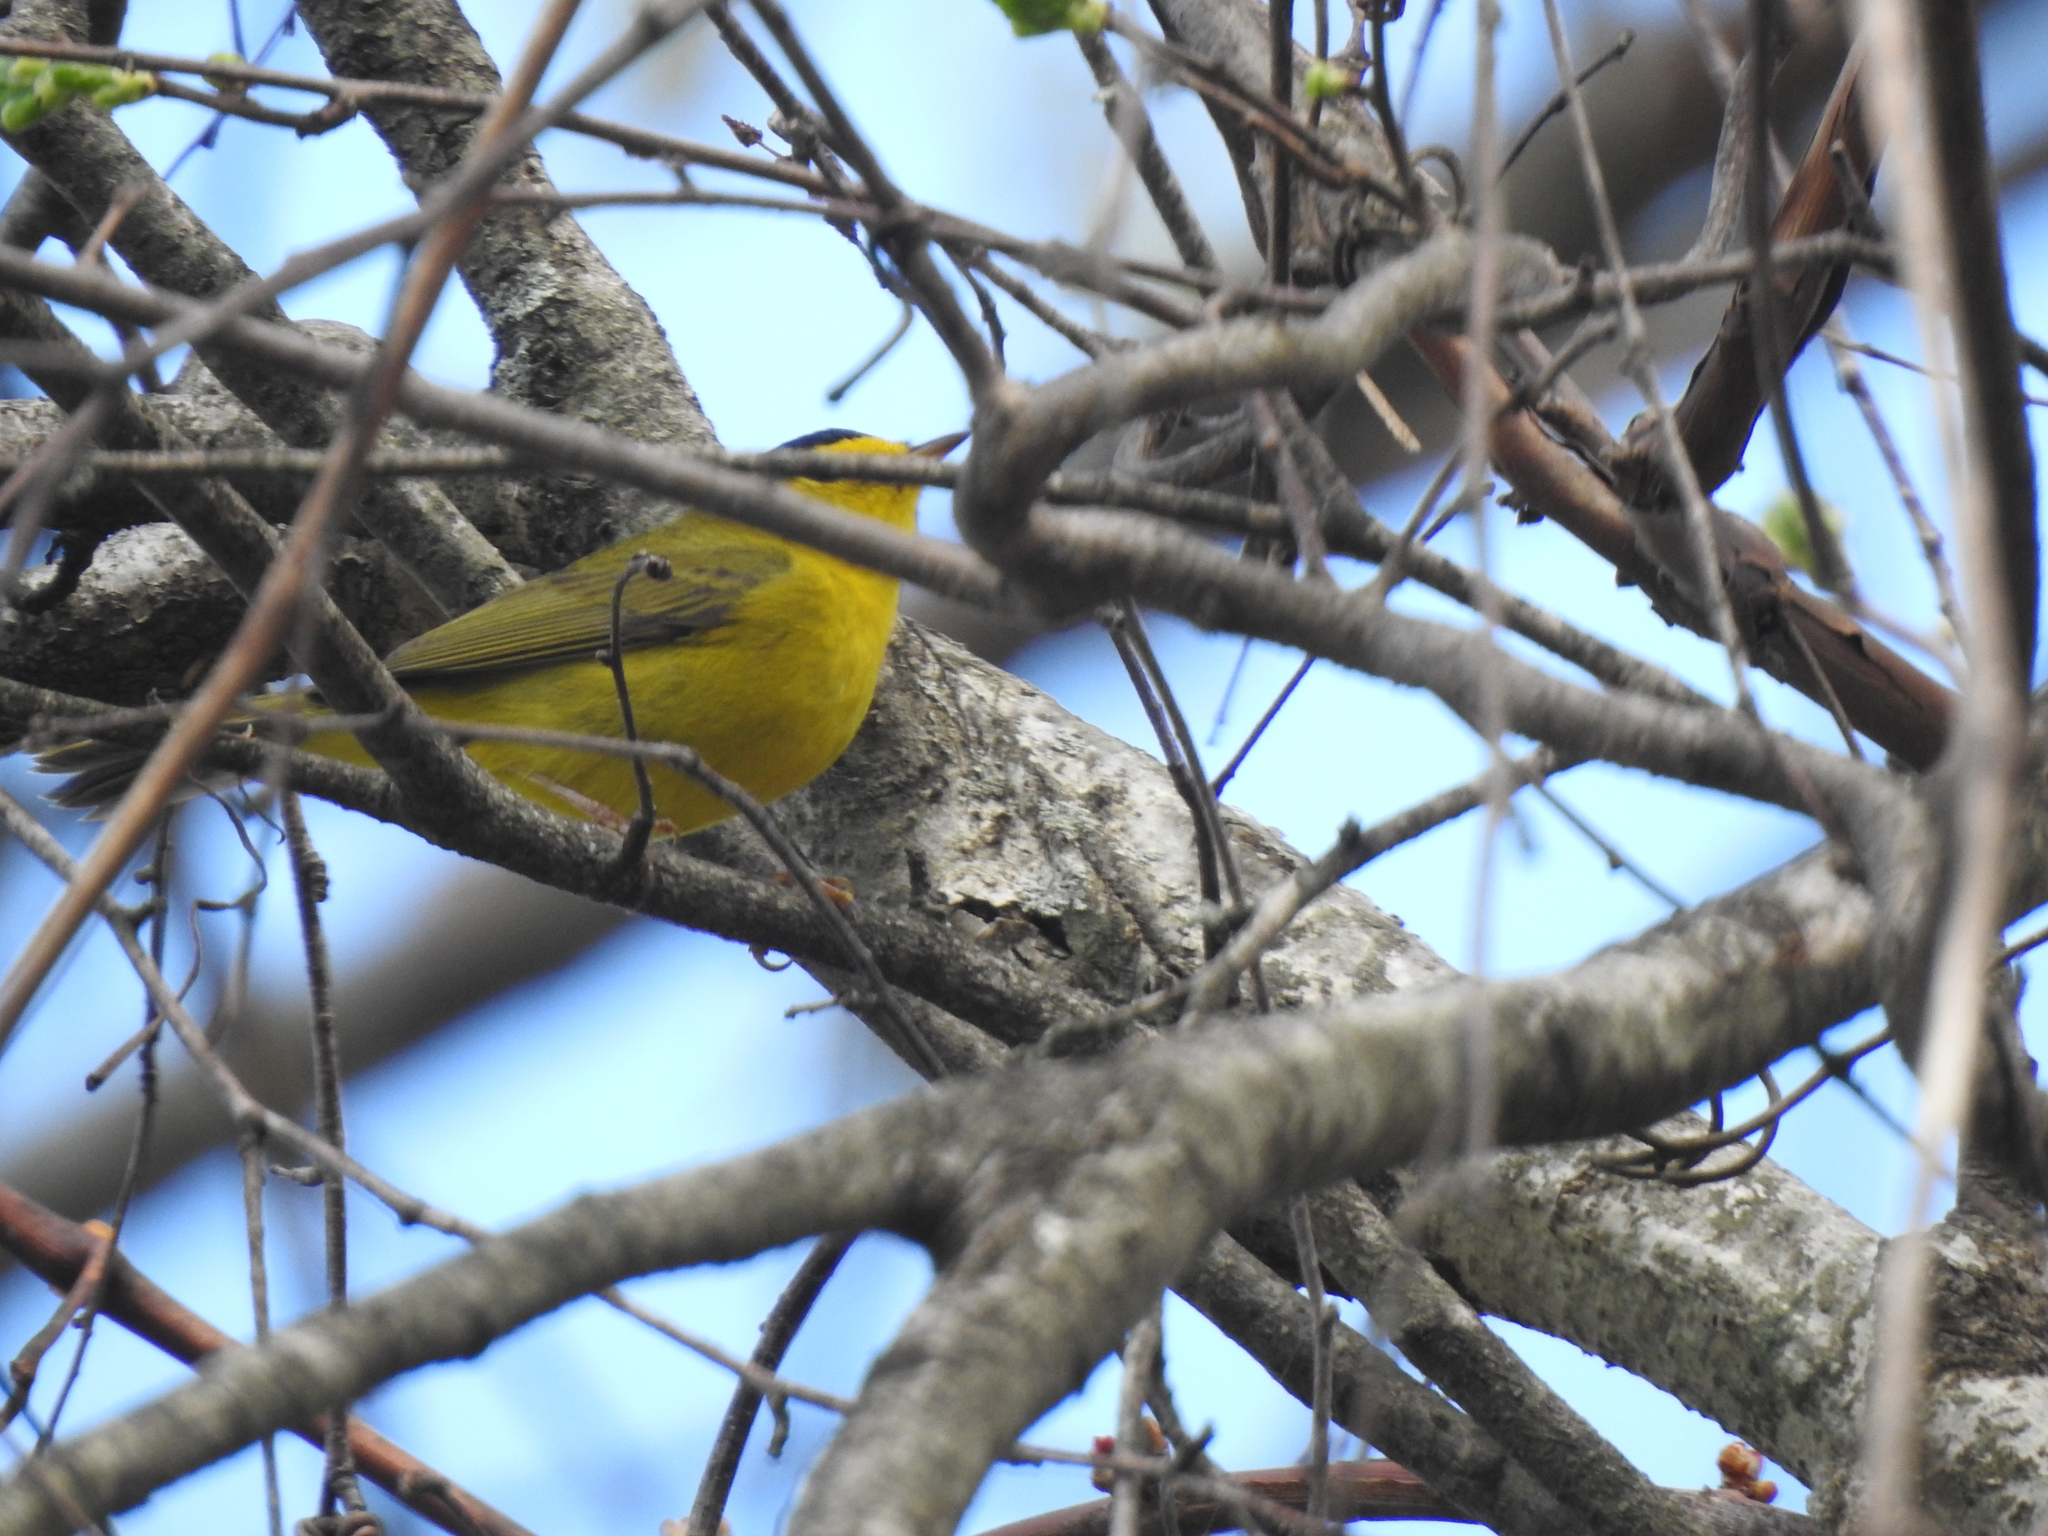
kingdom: Animalia
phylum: Chordata
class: Aves
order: Passeriformes
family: Parulidae
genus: Cardellina
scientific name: Cardellina pusilla
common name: Wilson's warbler
